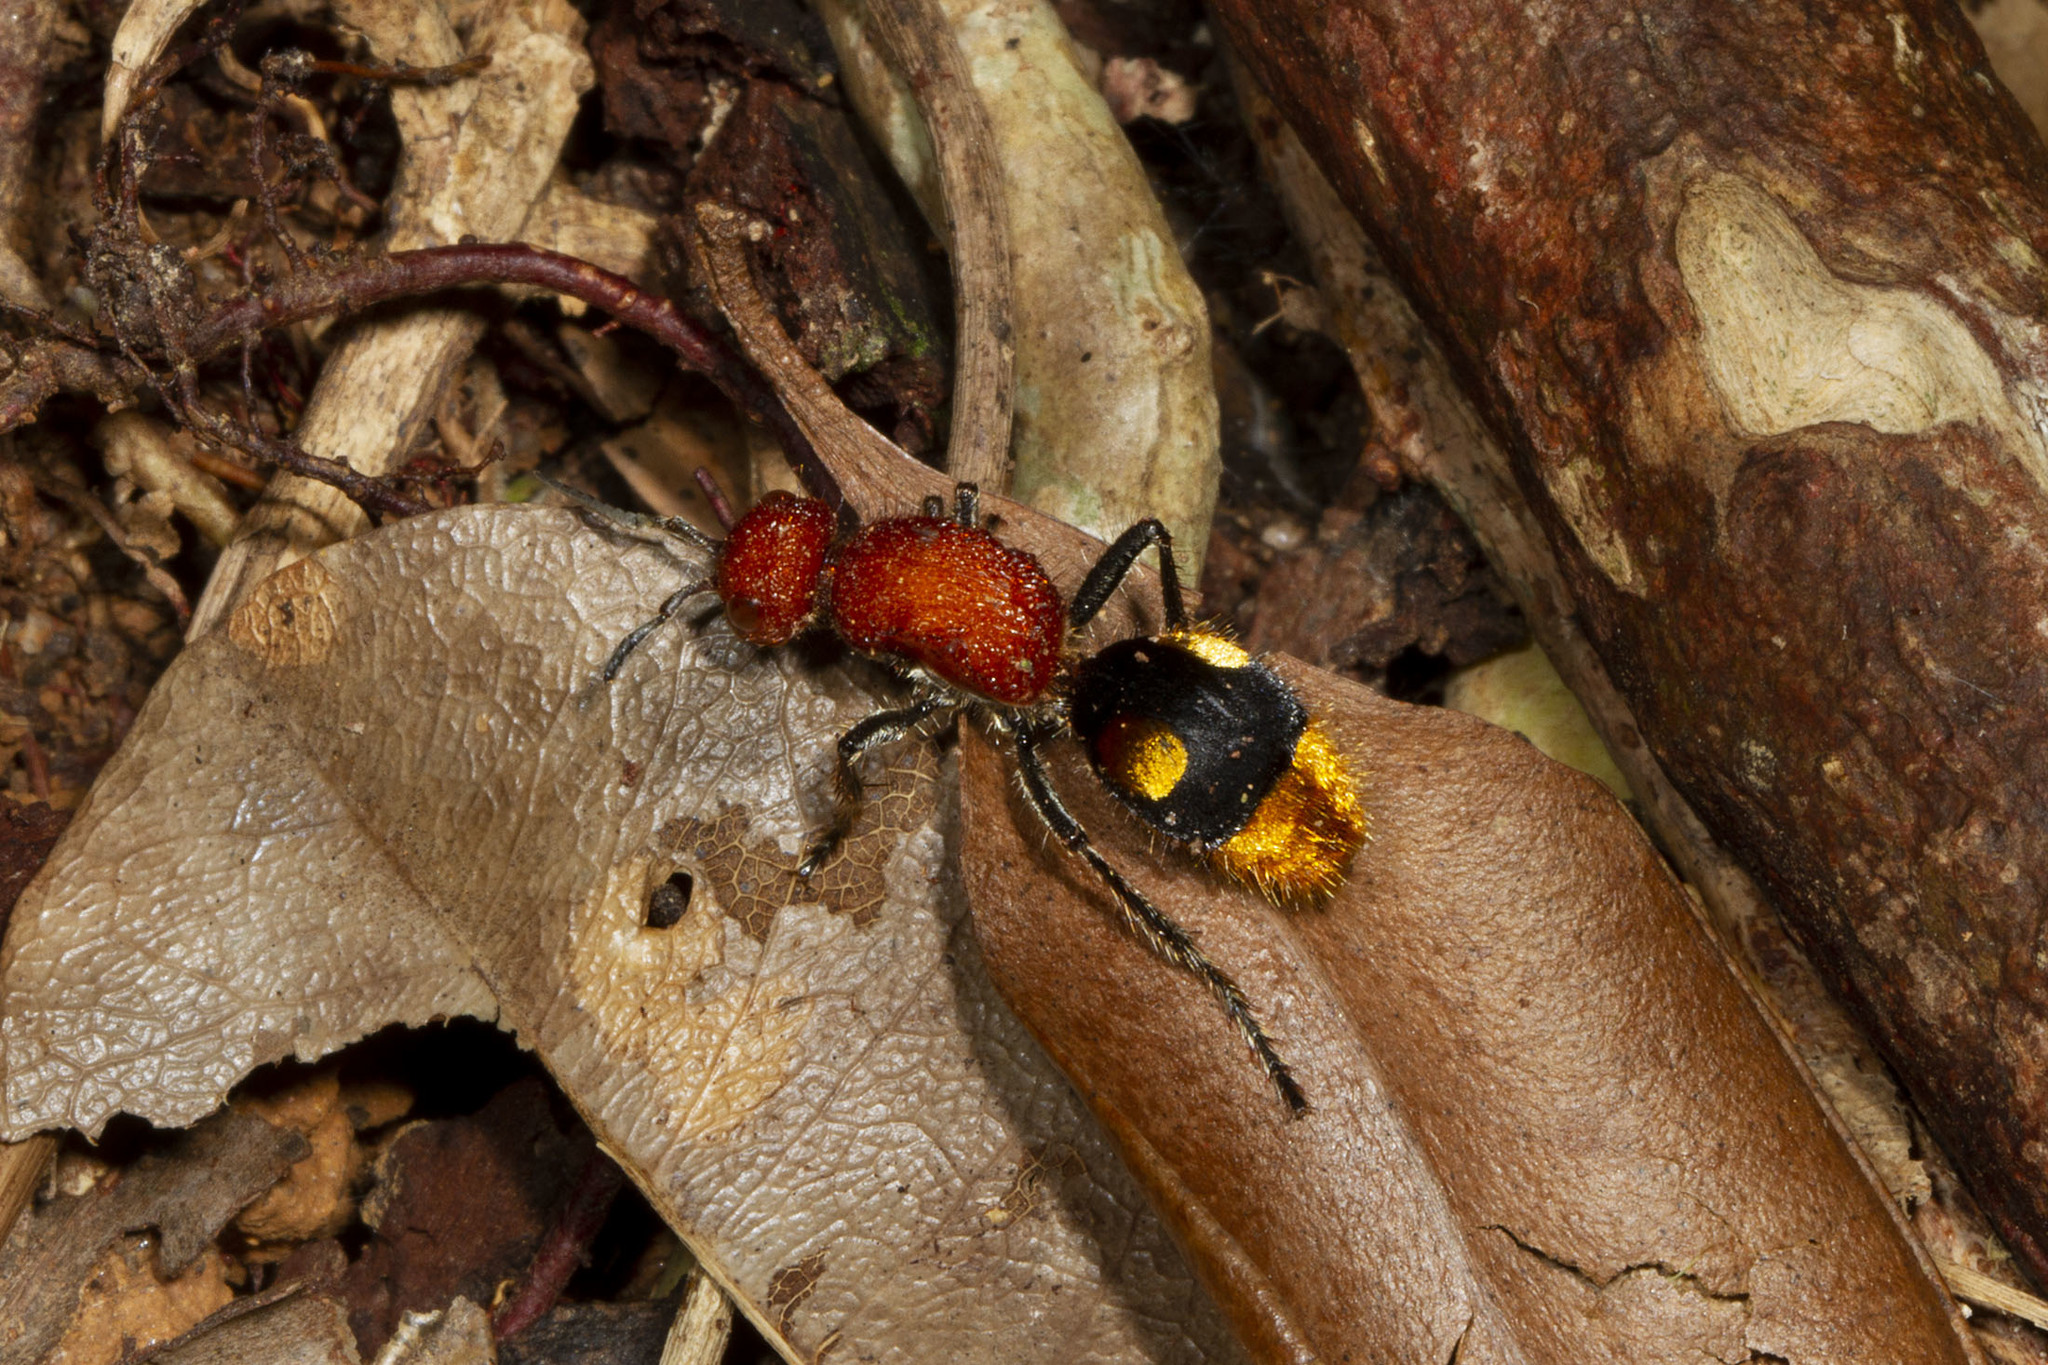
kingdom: Animalia
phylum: Arthropoda
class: Insecta
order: Hymenoptera
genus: Aureotilla
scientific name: Aureotilla
